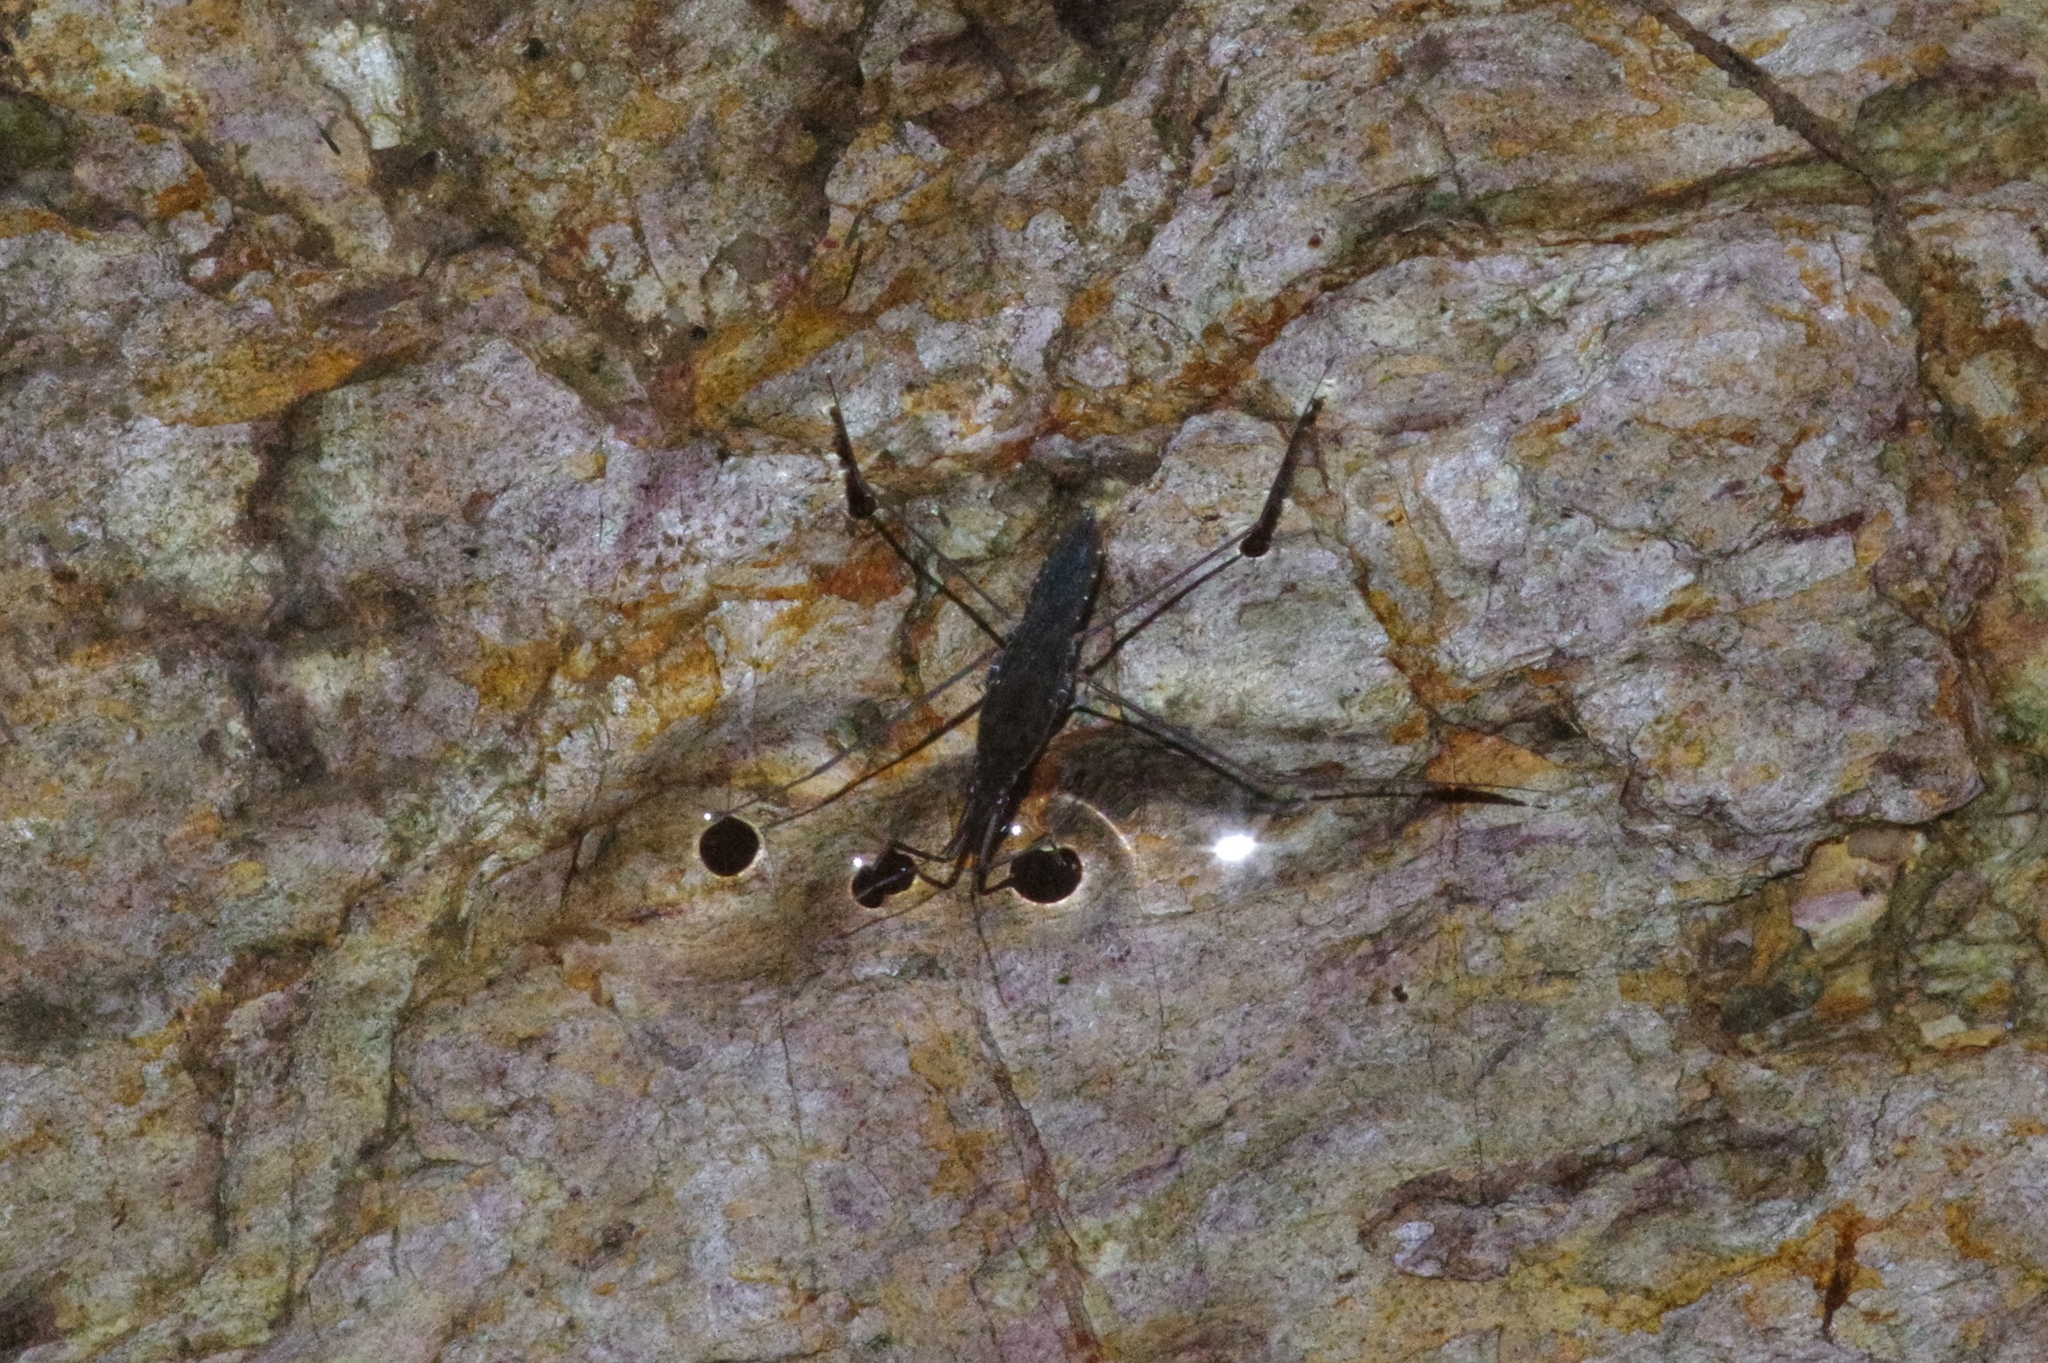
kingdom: Animalia
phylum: Arthropoda
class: Insecta
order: Hemiptera
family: Gerridae
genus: Gerris
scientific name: Gerris gracilicornis
